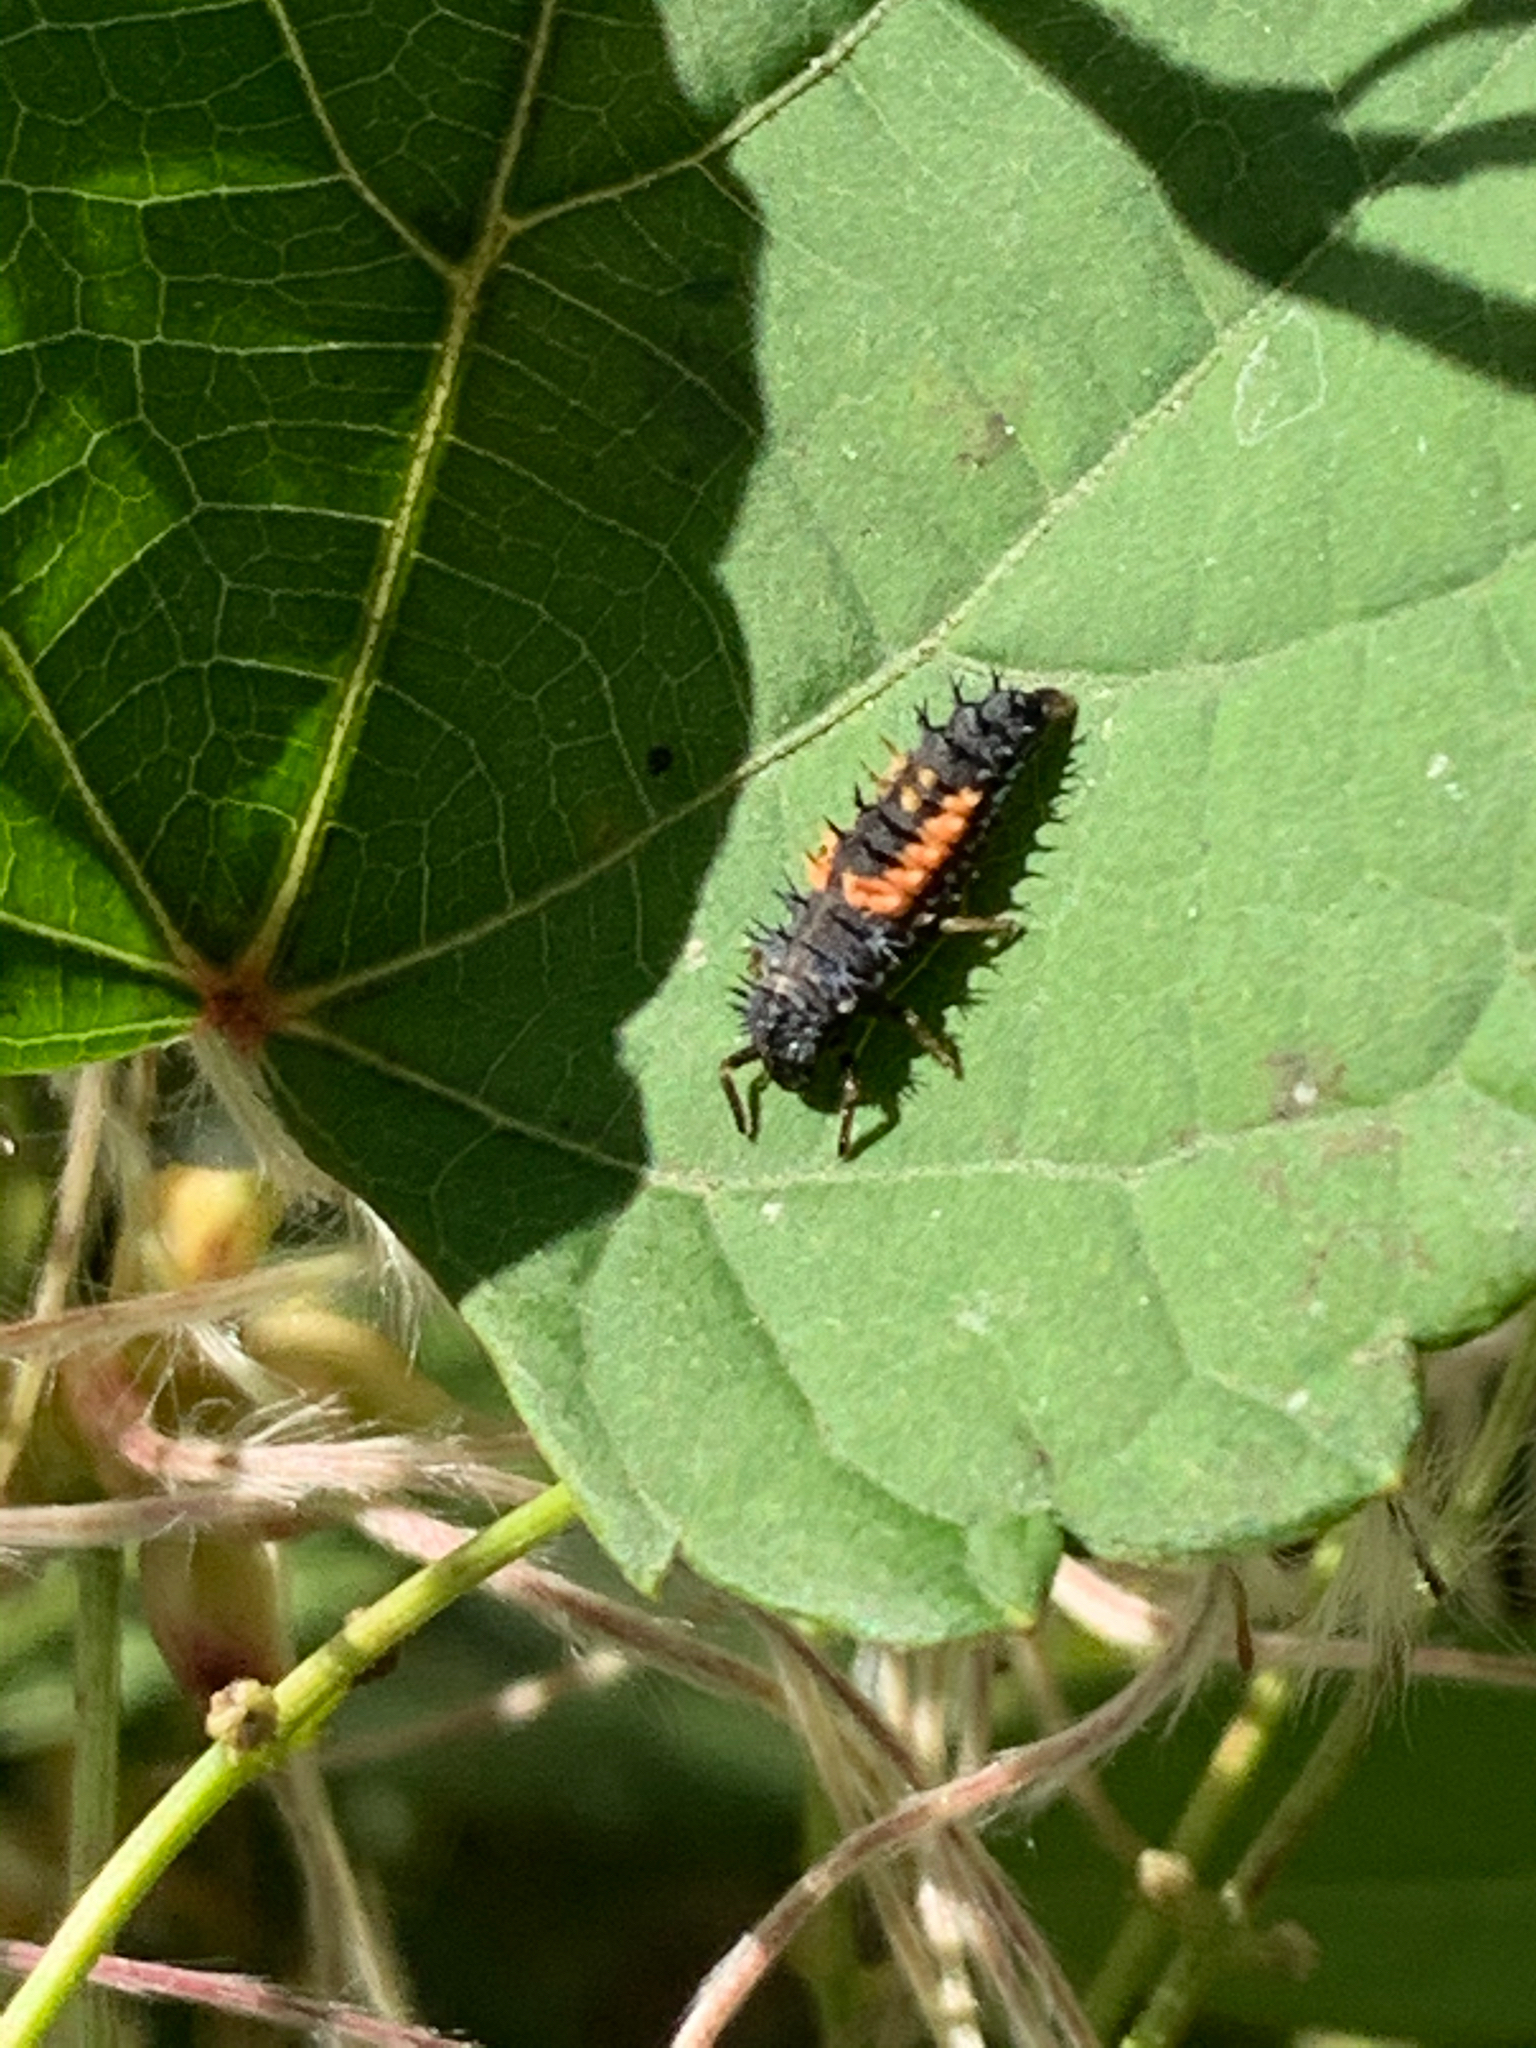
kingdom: Animalia
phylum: Arthropoda
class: Insecta
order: Coleoptera
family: Coccinellidae
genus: Harmonia
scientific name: Harmonia axyridis
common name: Harlequin ladybird
